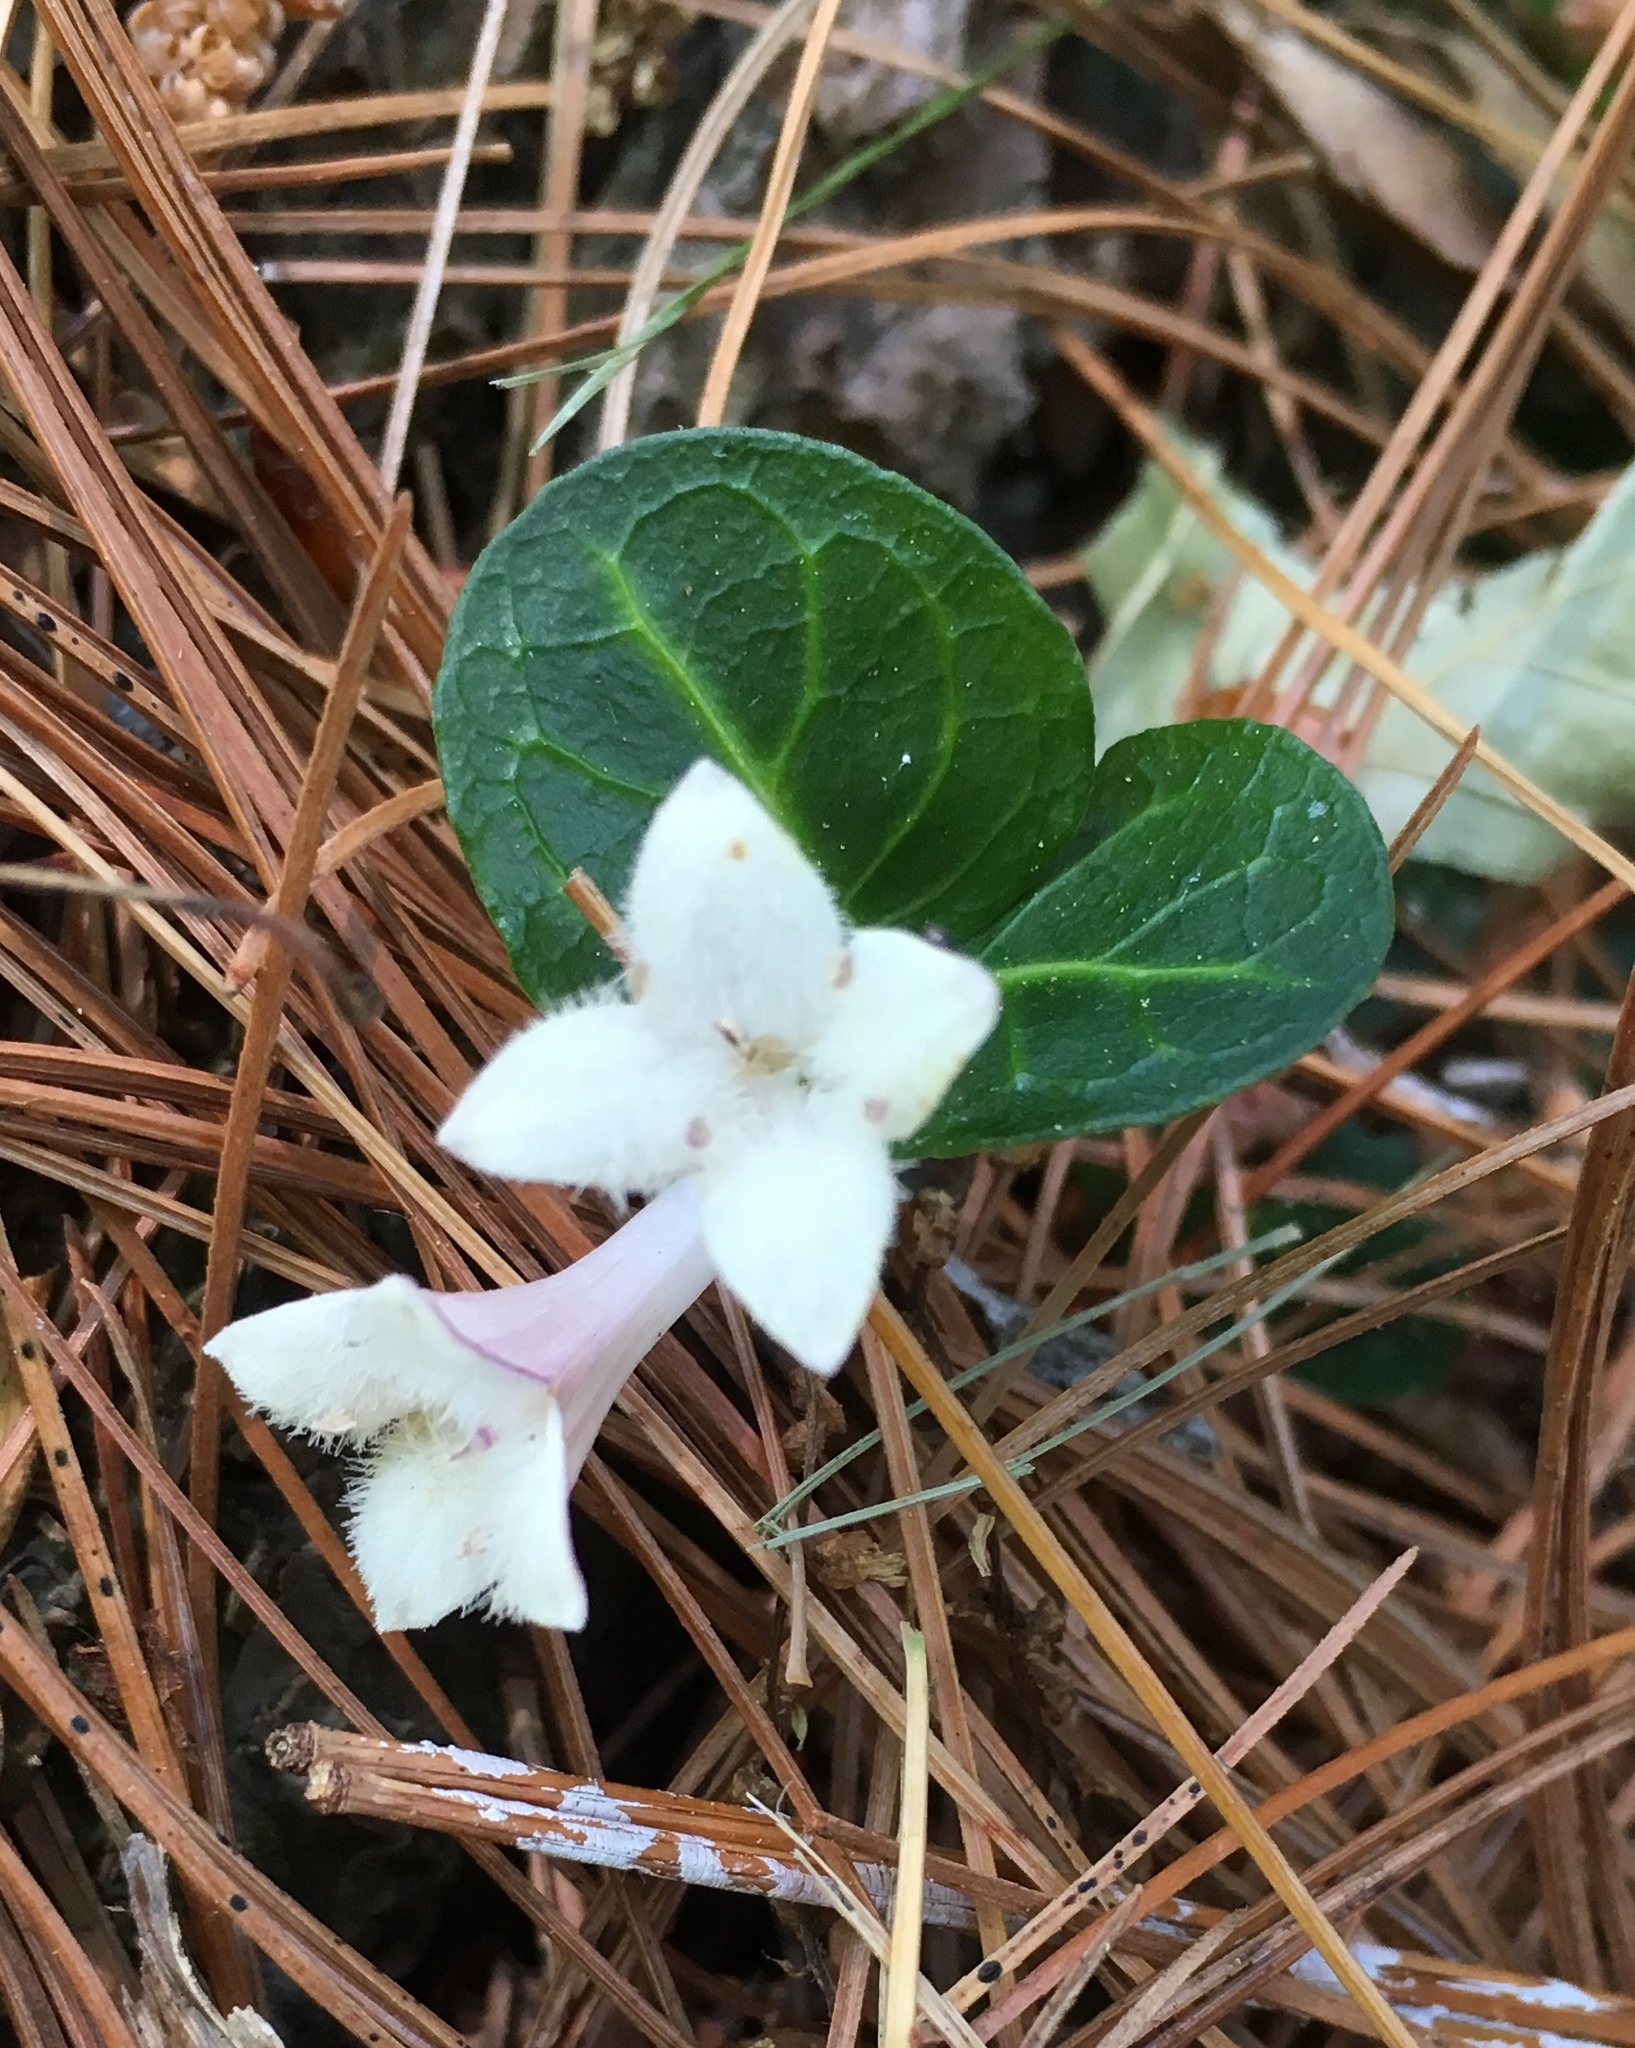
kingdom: Plantae
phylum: Tracheophyta
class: Magnoliopsida
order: Gentianales
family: Rubiaceae
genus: Mitchella
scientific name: Mitchella repens
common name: Partridge-berry
